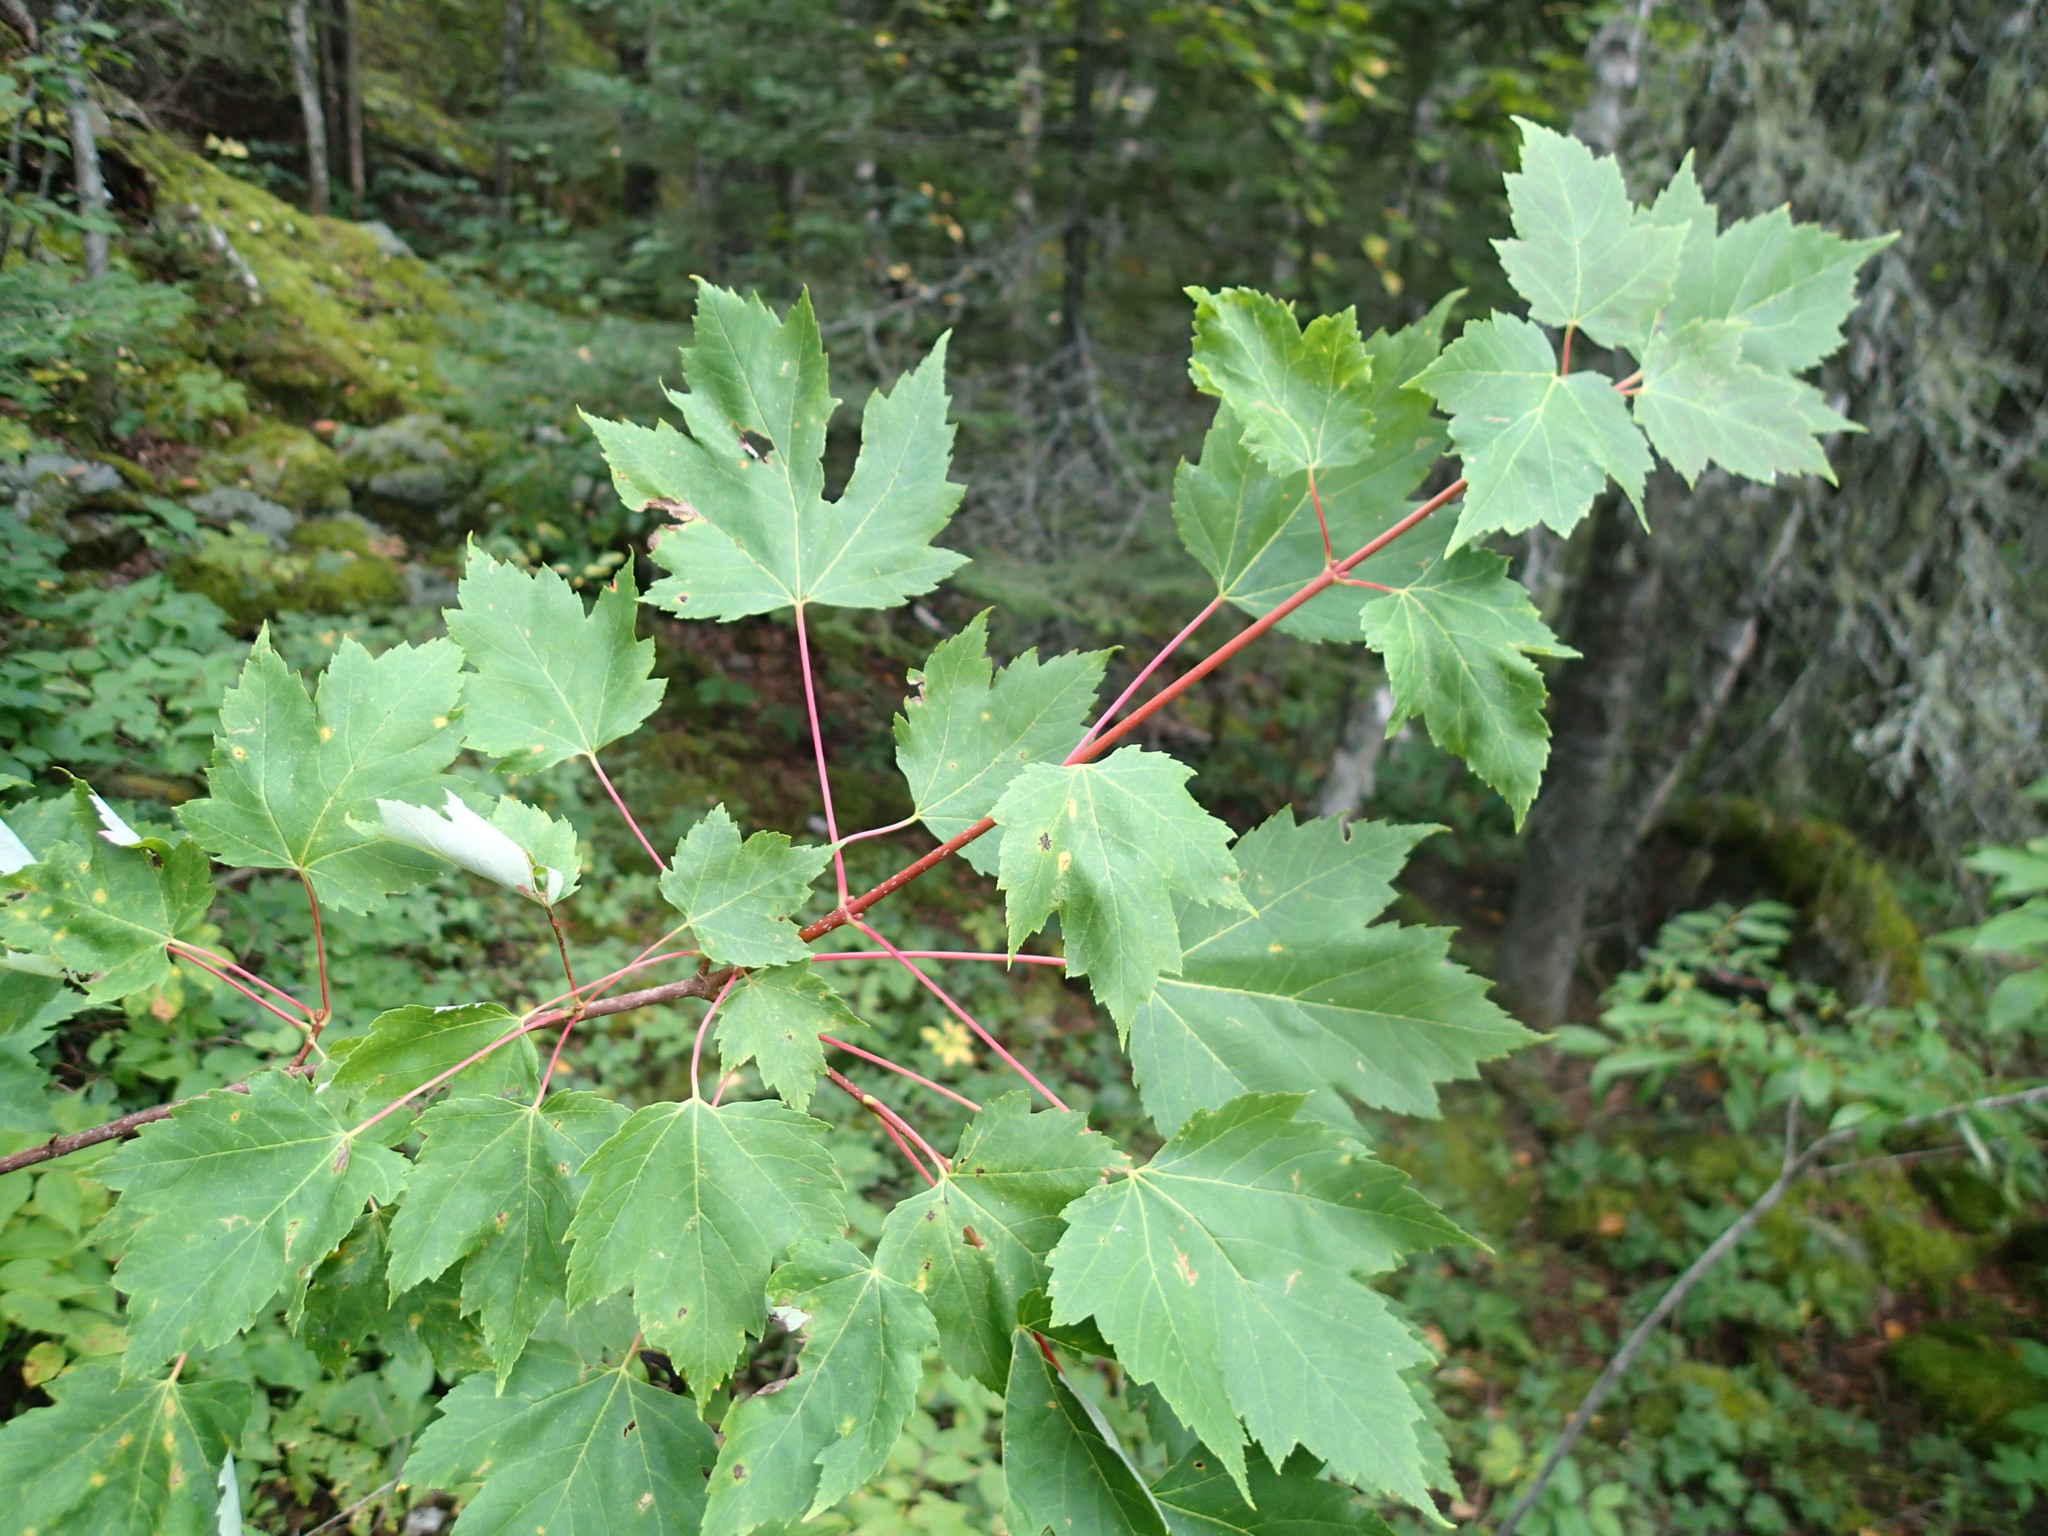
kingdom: Plantae
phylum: Tracheophyta
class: Magnoliopsida
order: Sapindales
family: Sapindaceae
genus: Acer
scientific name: Acer rubrum
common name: Red maple
